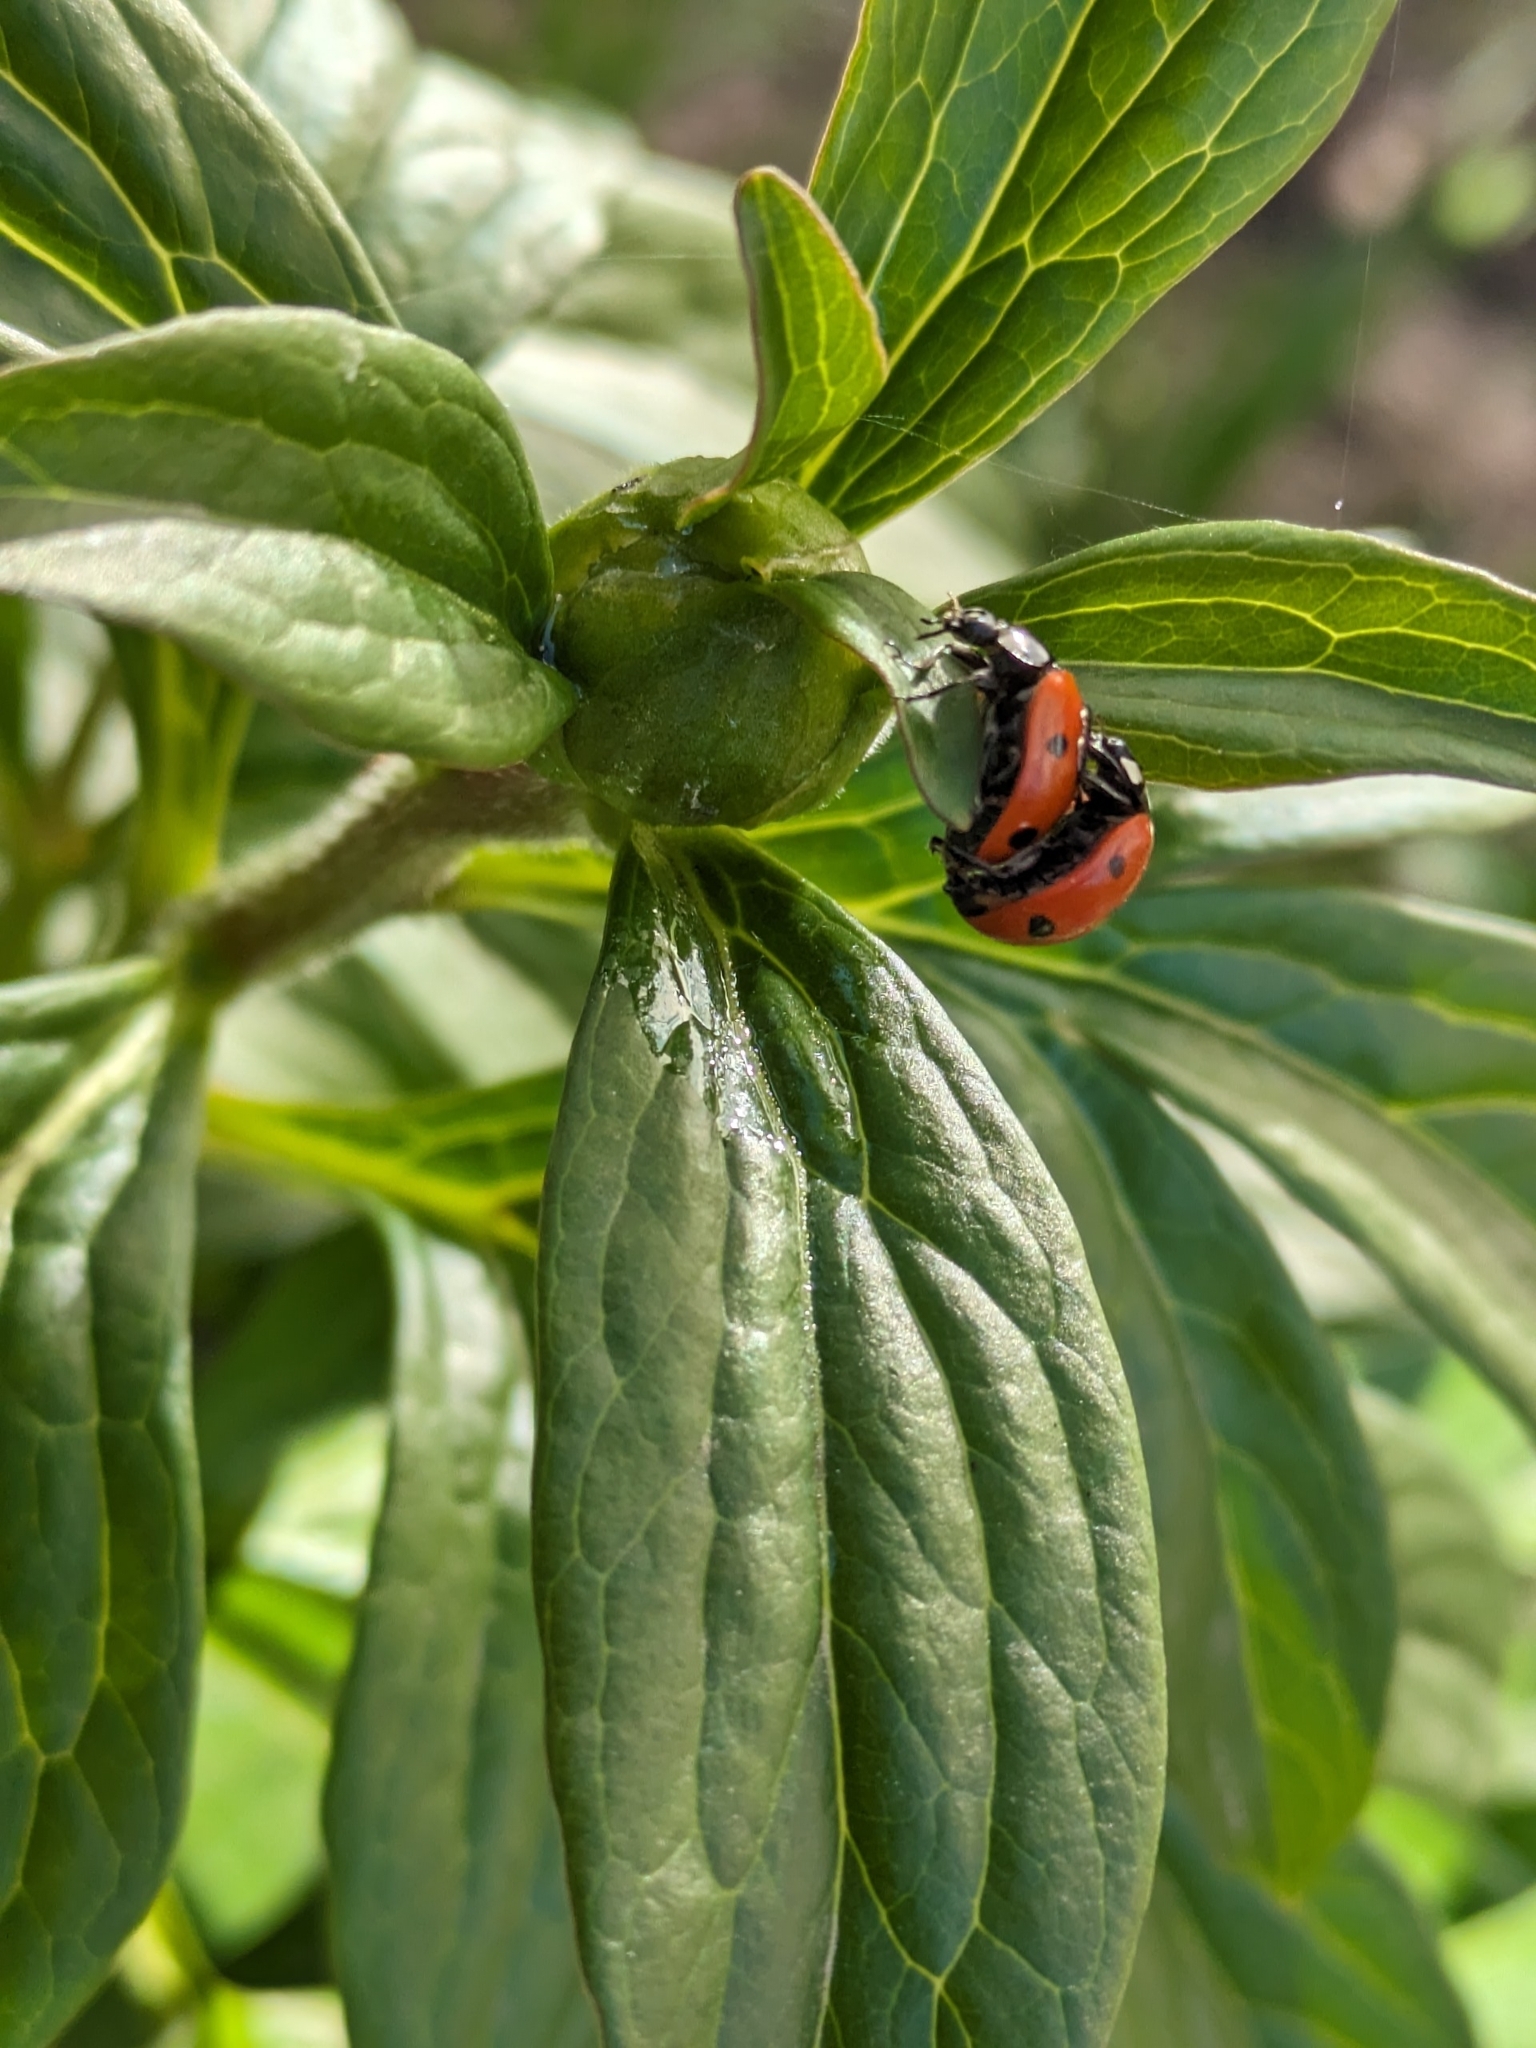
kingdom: Animalia
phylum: Arthropoda
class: Insecta
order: Coleoptera
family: Coccinellidae
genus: Coccinella
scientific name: Coccinella septempunctata
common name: Sevenspotted lady beetle
